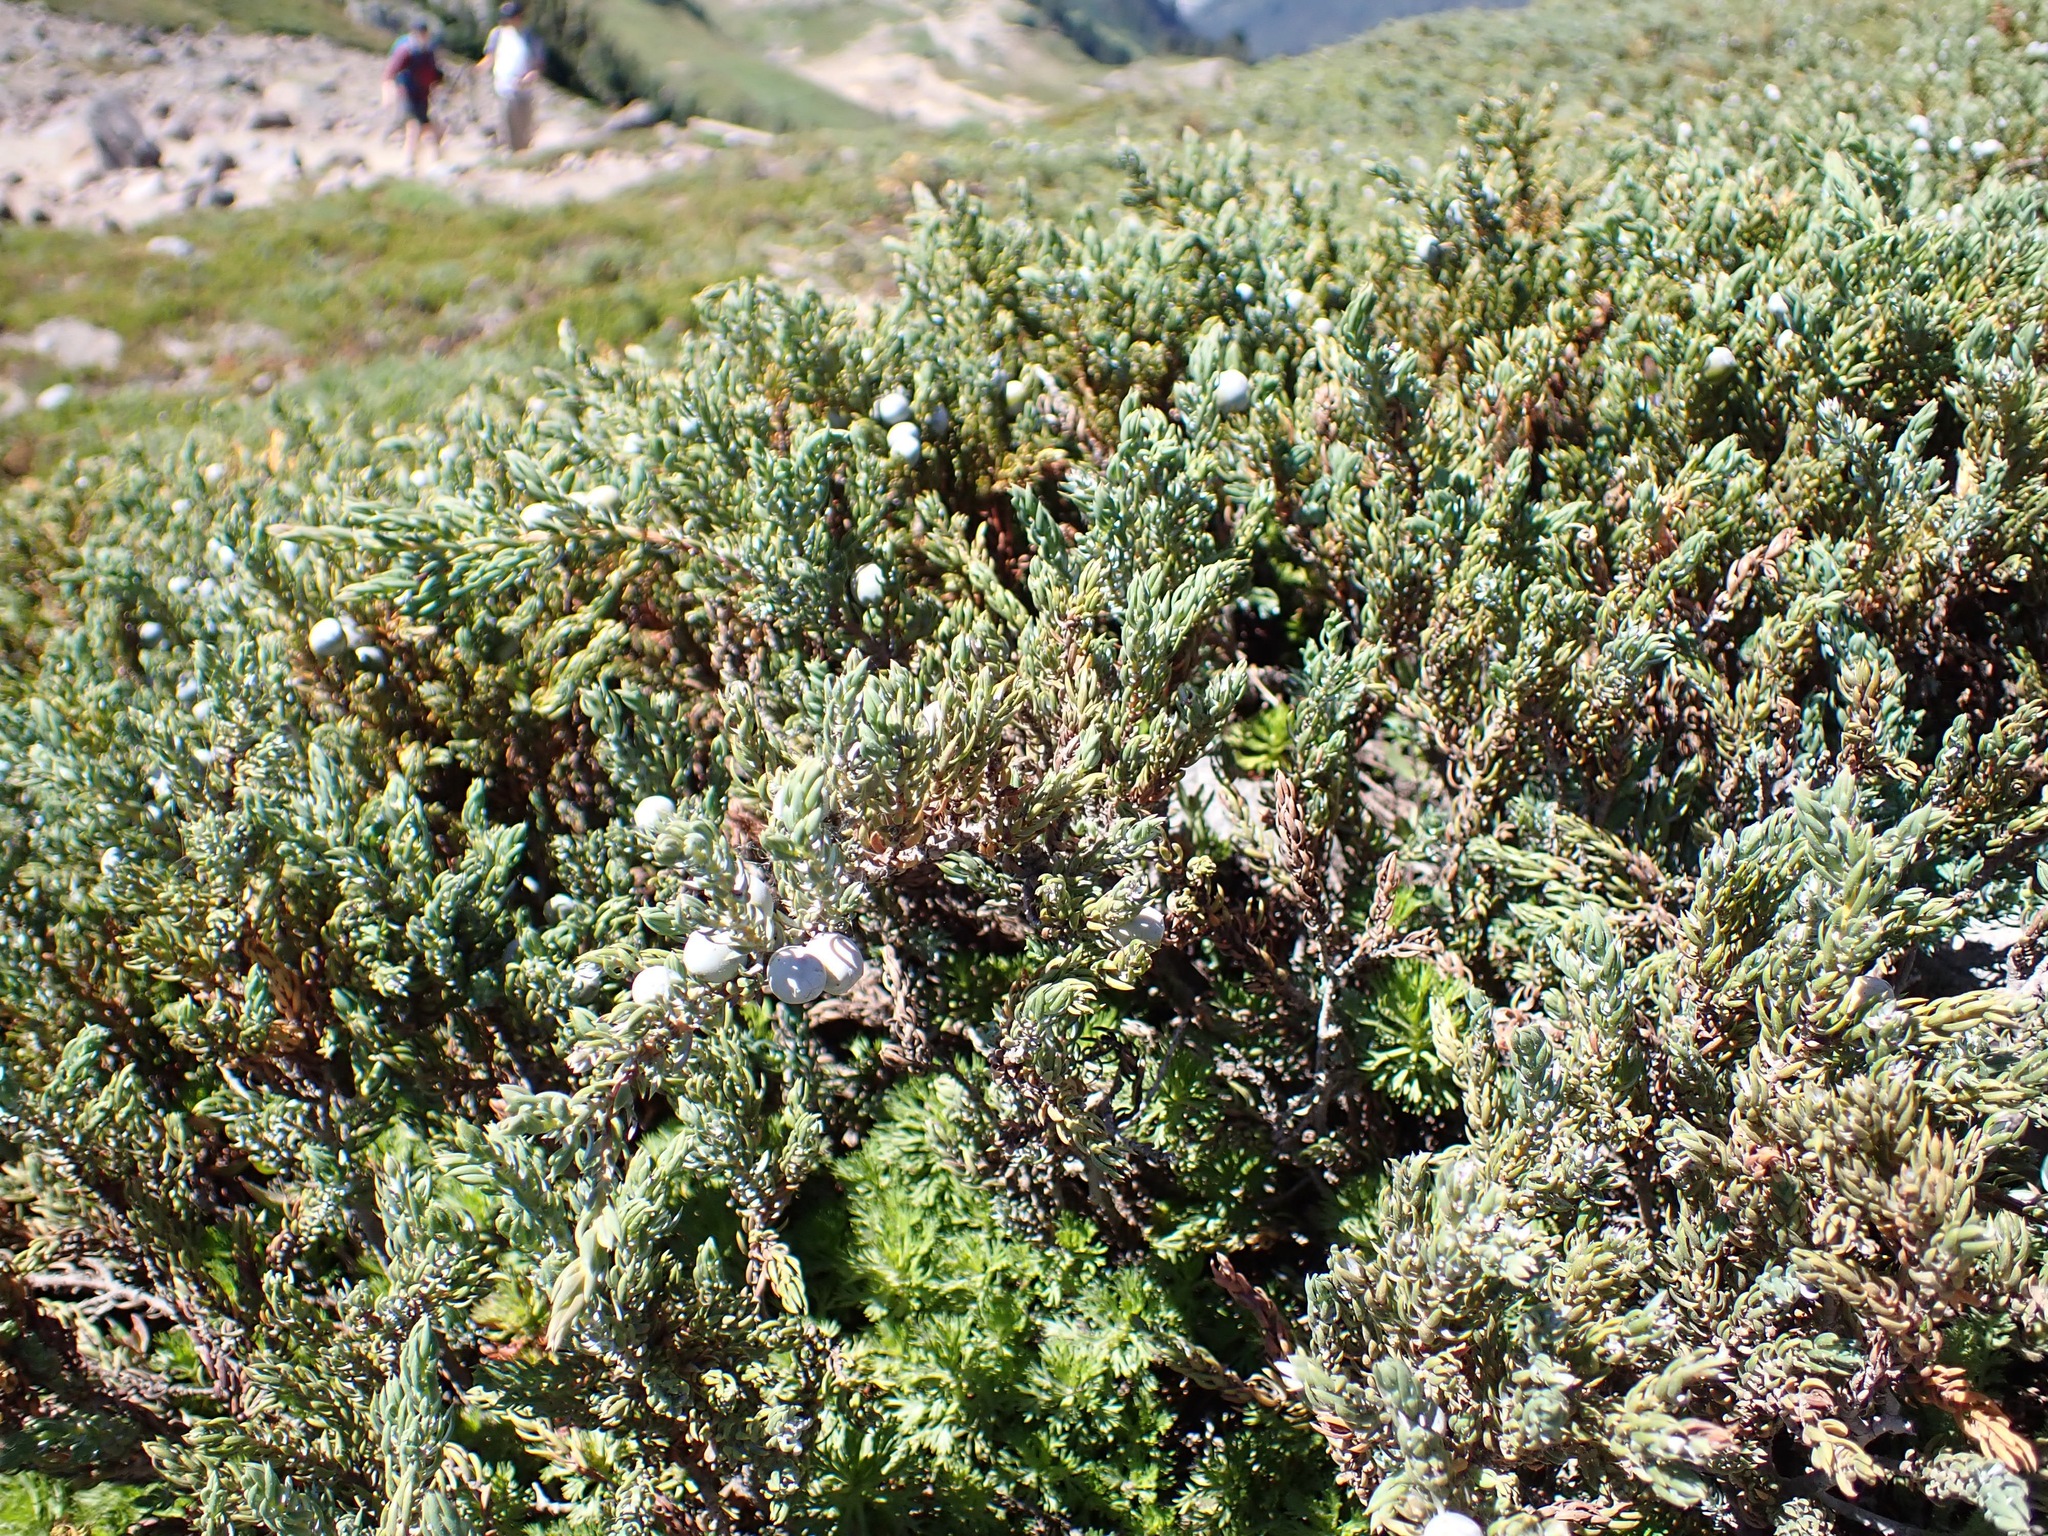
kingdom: Plantae
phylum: Tracheophyta
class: Pinopsida
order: Pinales
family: Cupressaceae
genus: Juniperus
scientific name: Juniperus communis
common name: Common juniper
